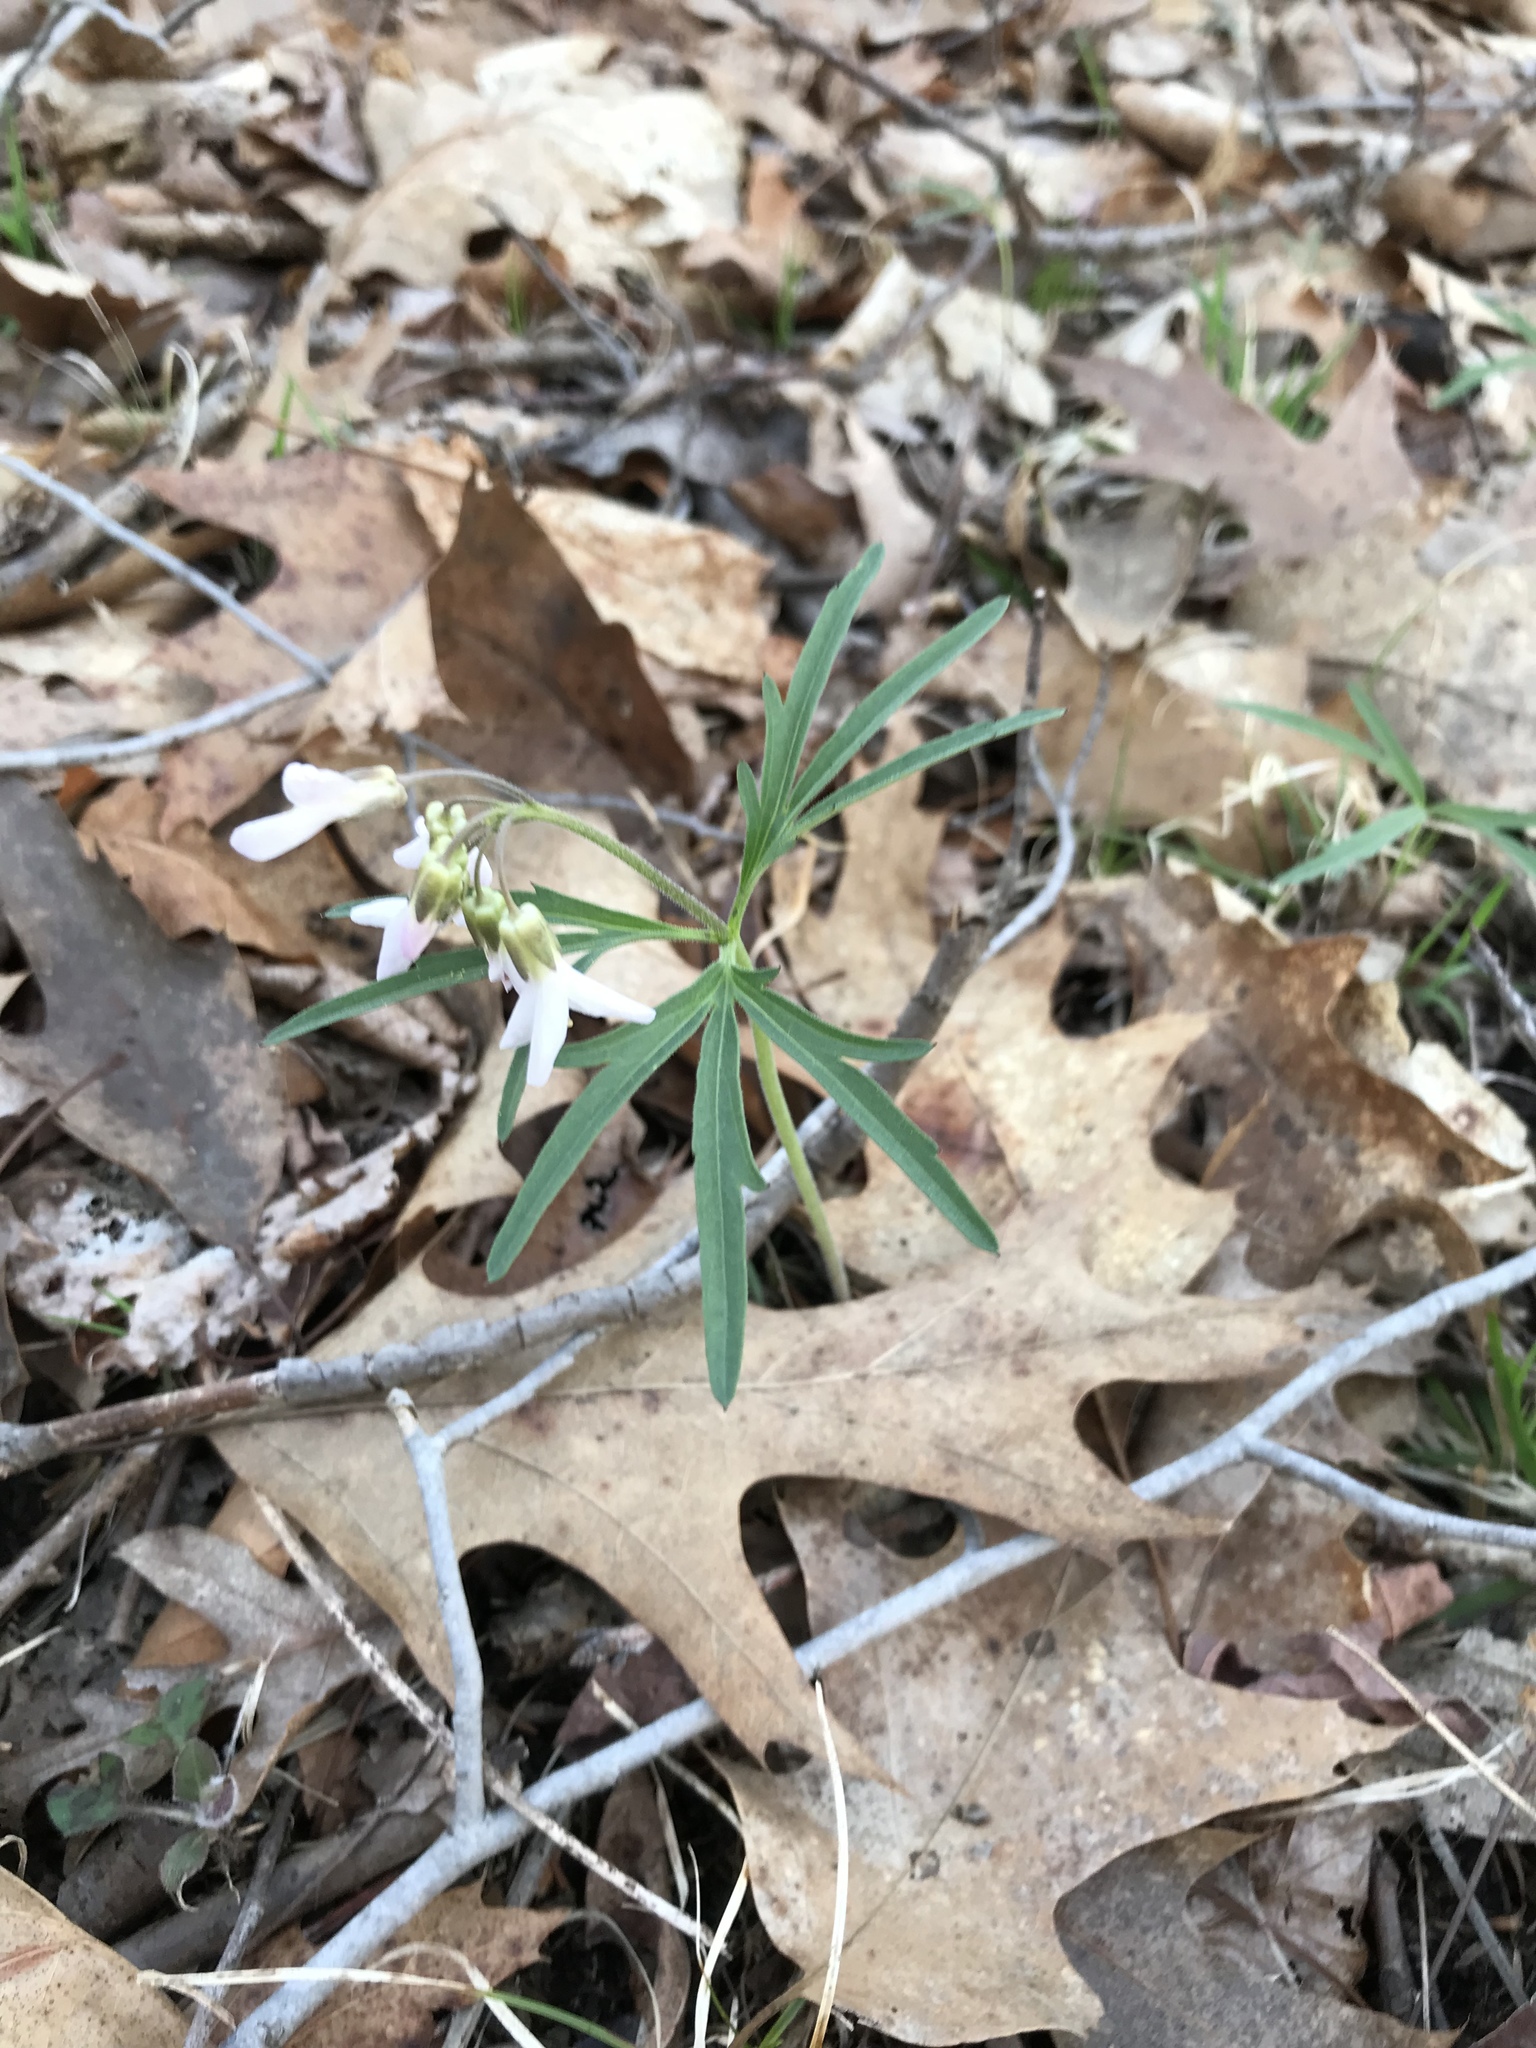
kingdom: Plantae
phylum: Tracheophyta
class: Magnoliopsida
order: Brassicales
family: Brassicaceae
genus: Cardamine
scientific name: Cardamine concatenata
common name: Cut-leaf toothcup
